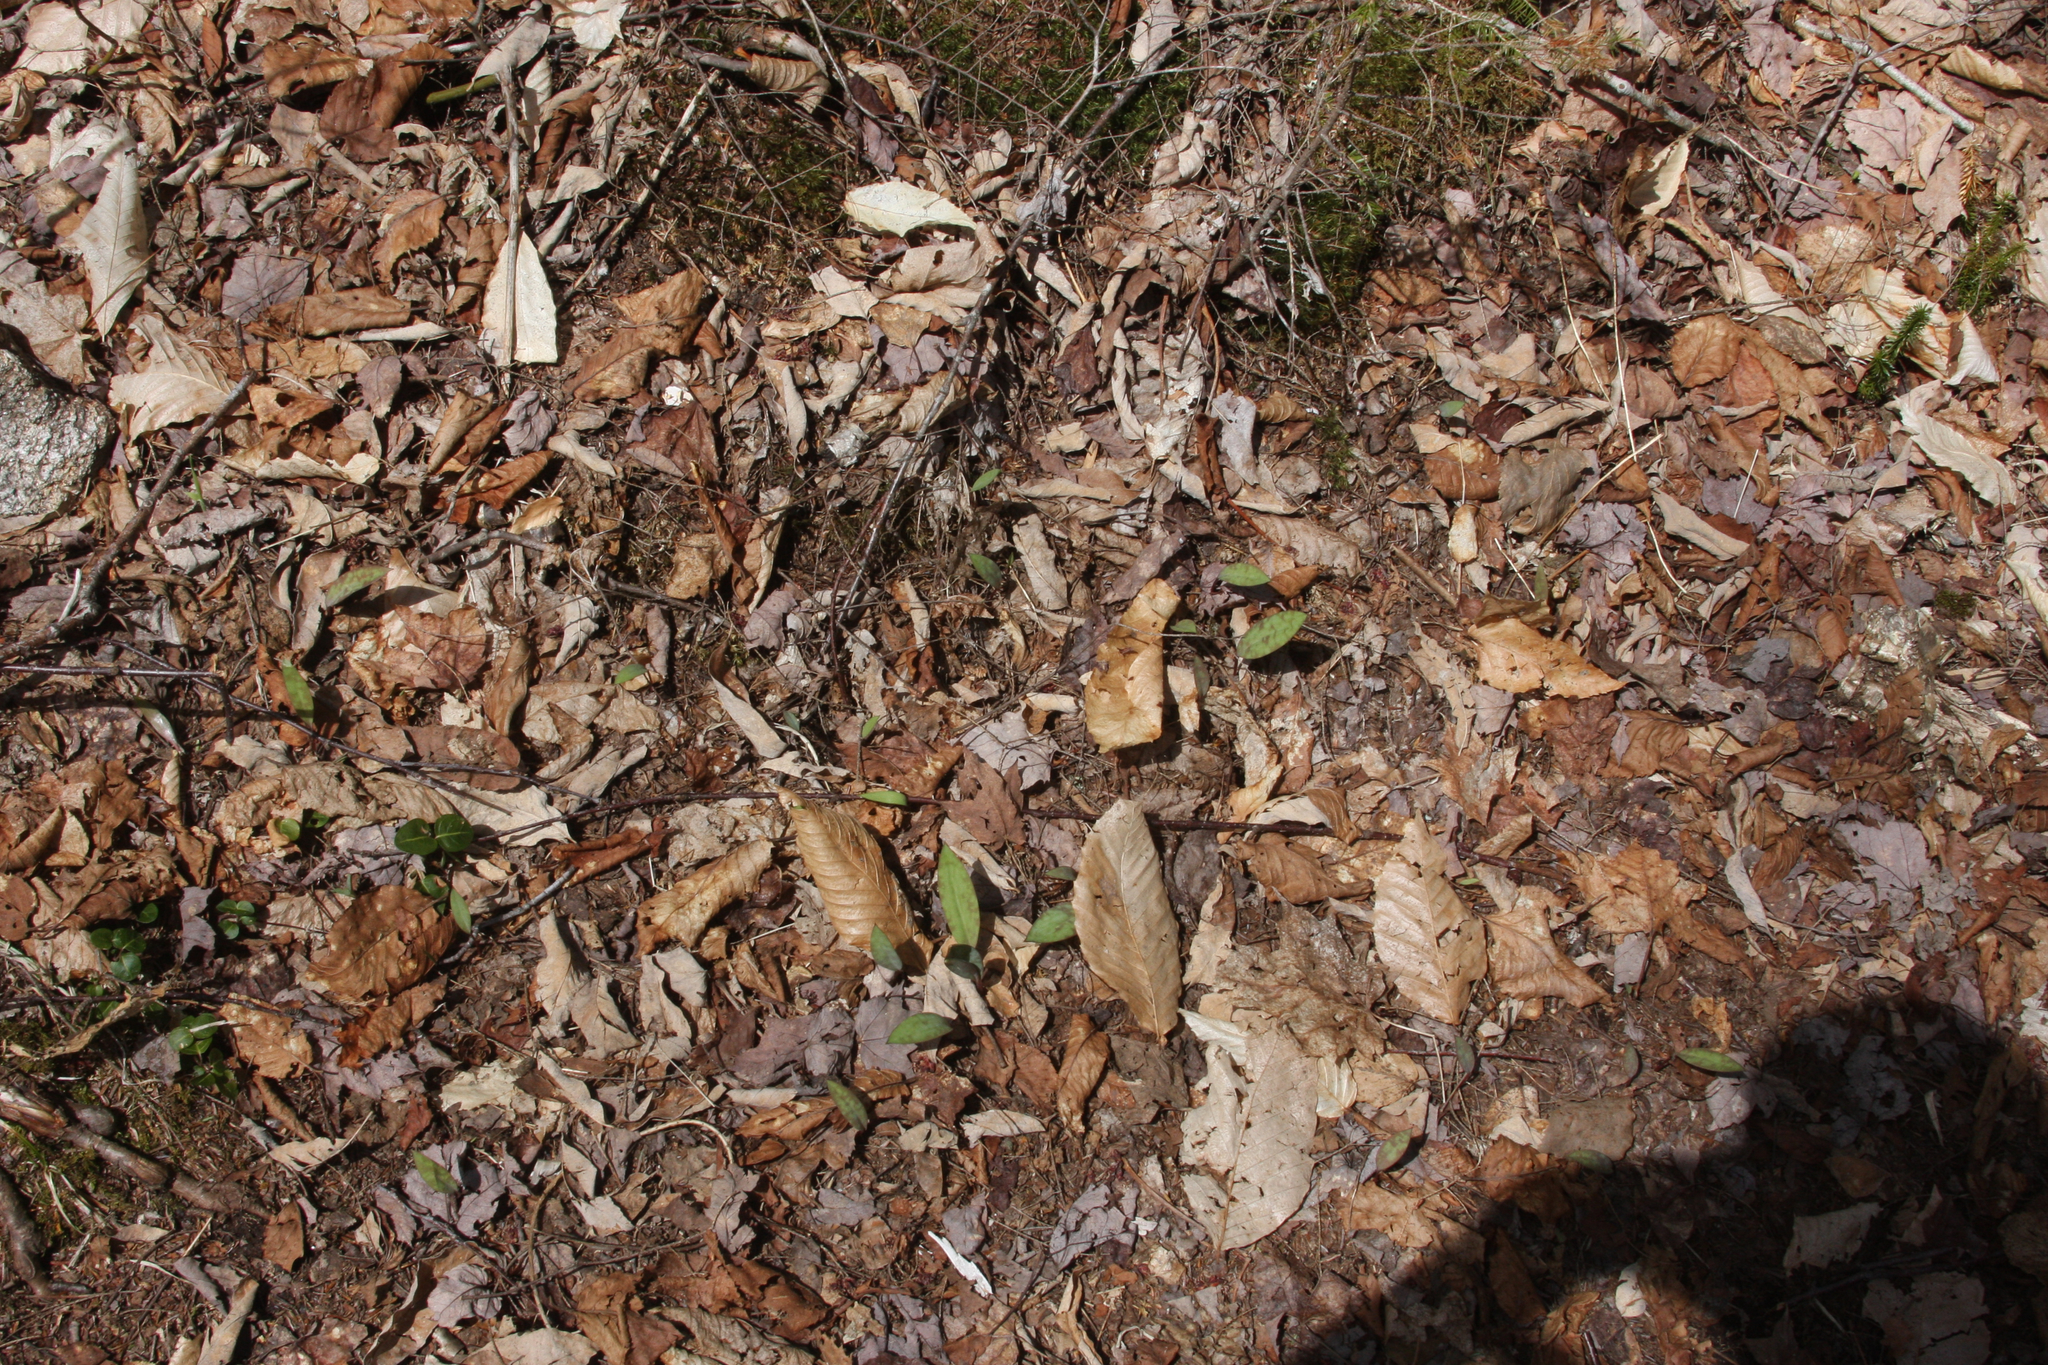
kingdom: Plantae
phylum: Tracheophyta
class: Liliopsida
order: Liliales
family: Liliaceae
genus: Erythronium
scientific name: Erythronium americanum
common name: Yellow adder's-tongue
